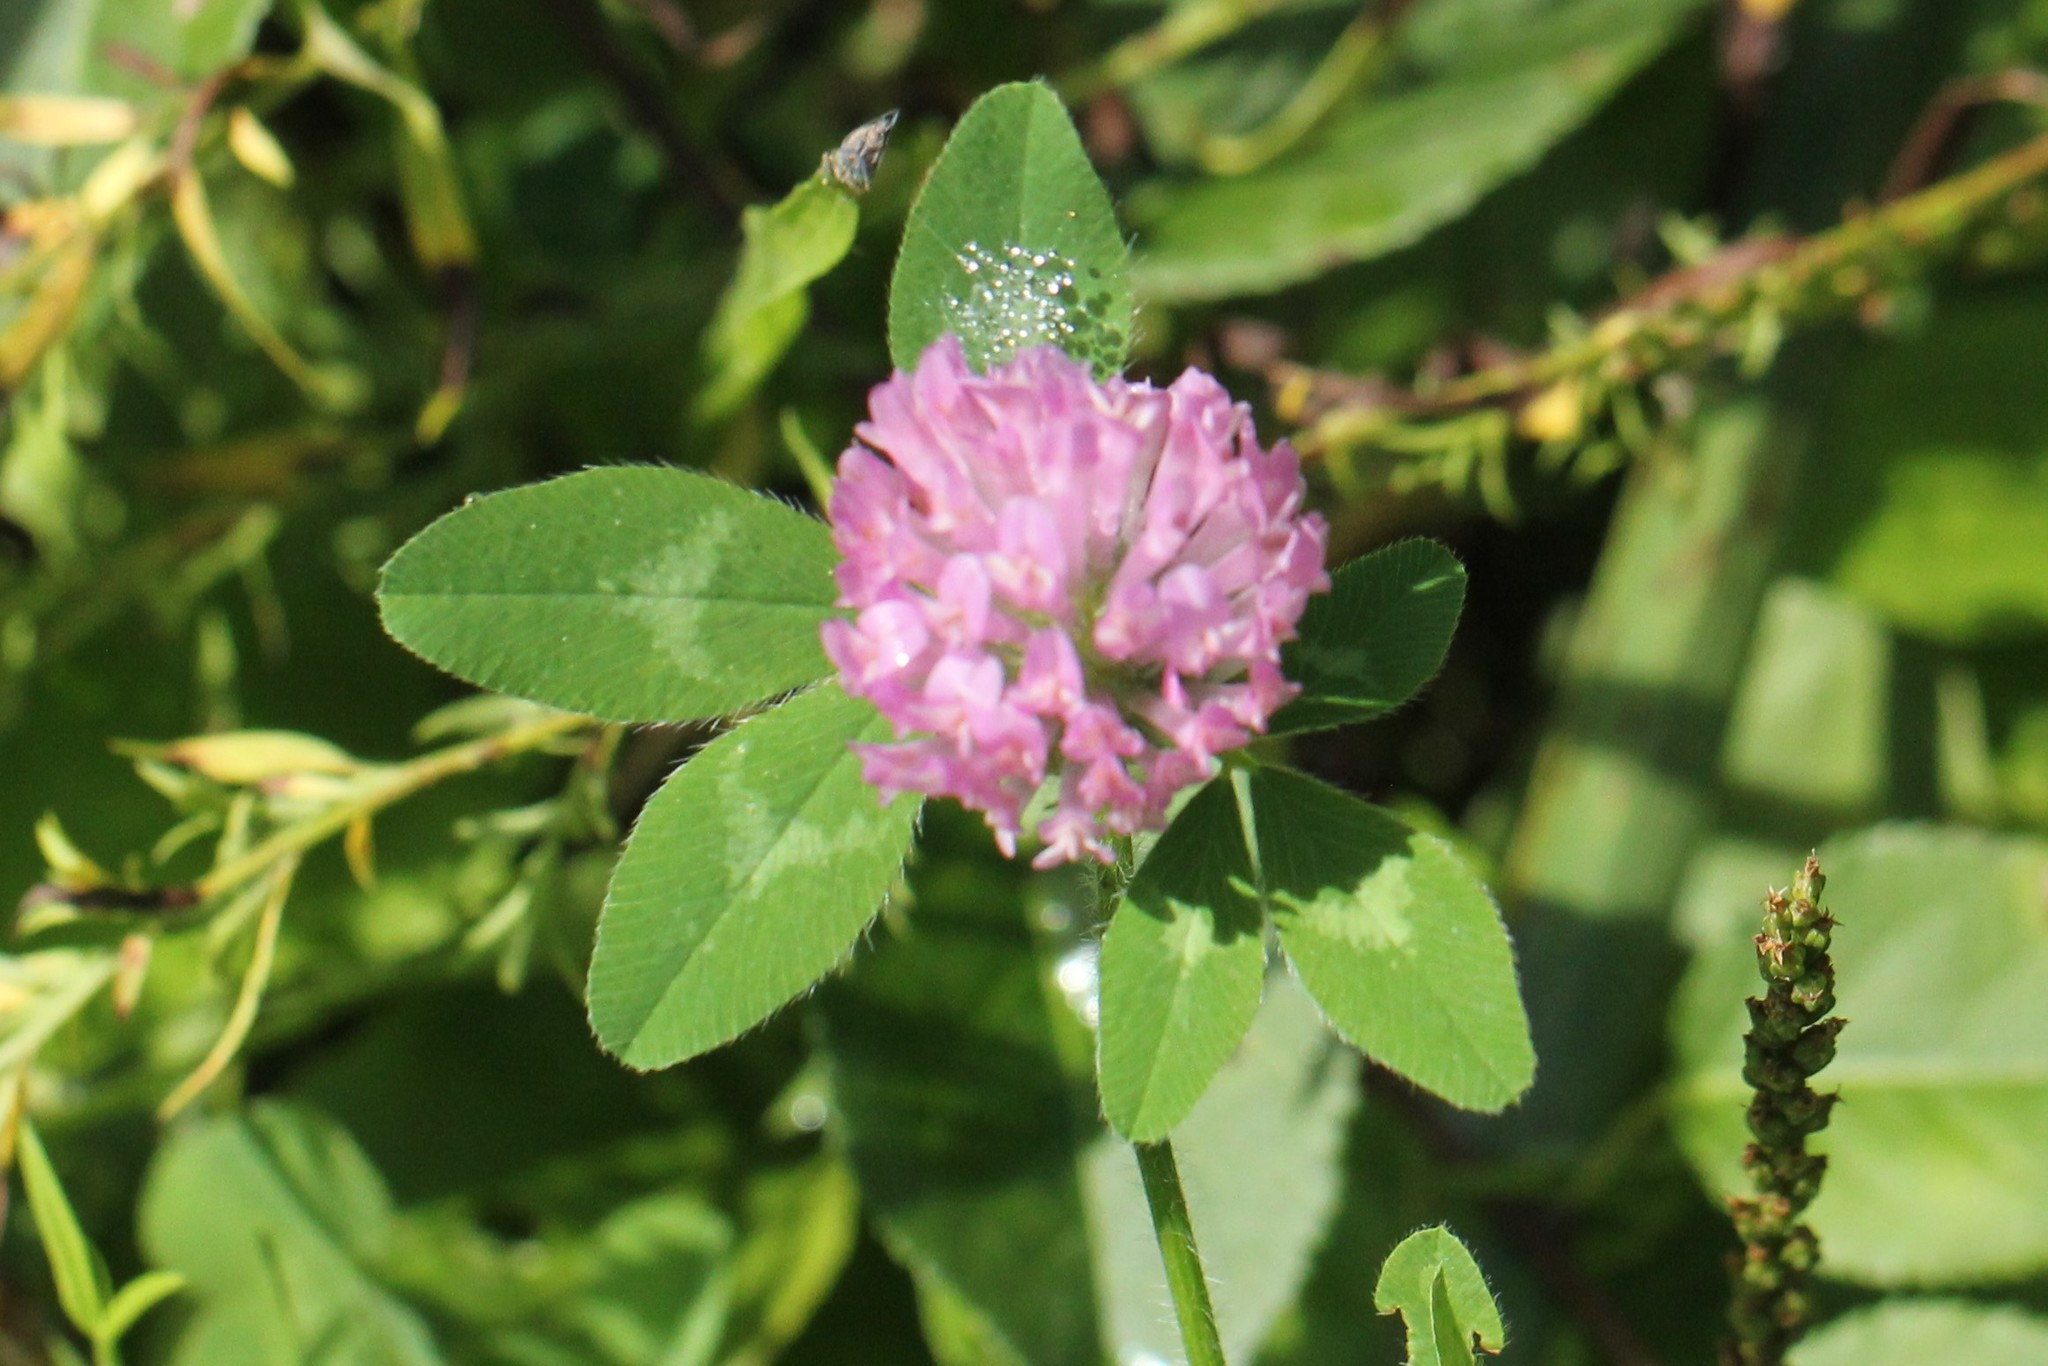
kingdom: Plantae
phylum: Tracheophyta
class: Magnoliopsida
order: Fabales
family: Fabaceae
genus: Trifolium
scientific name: Trifolium pratense
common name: Red clover
